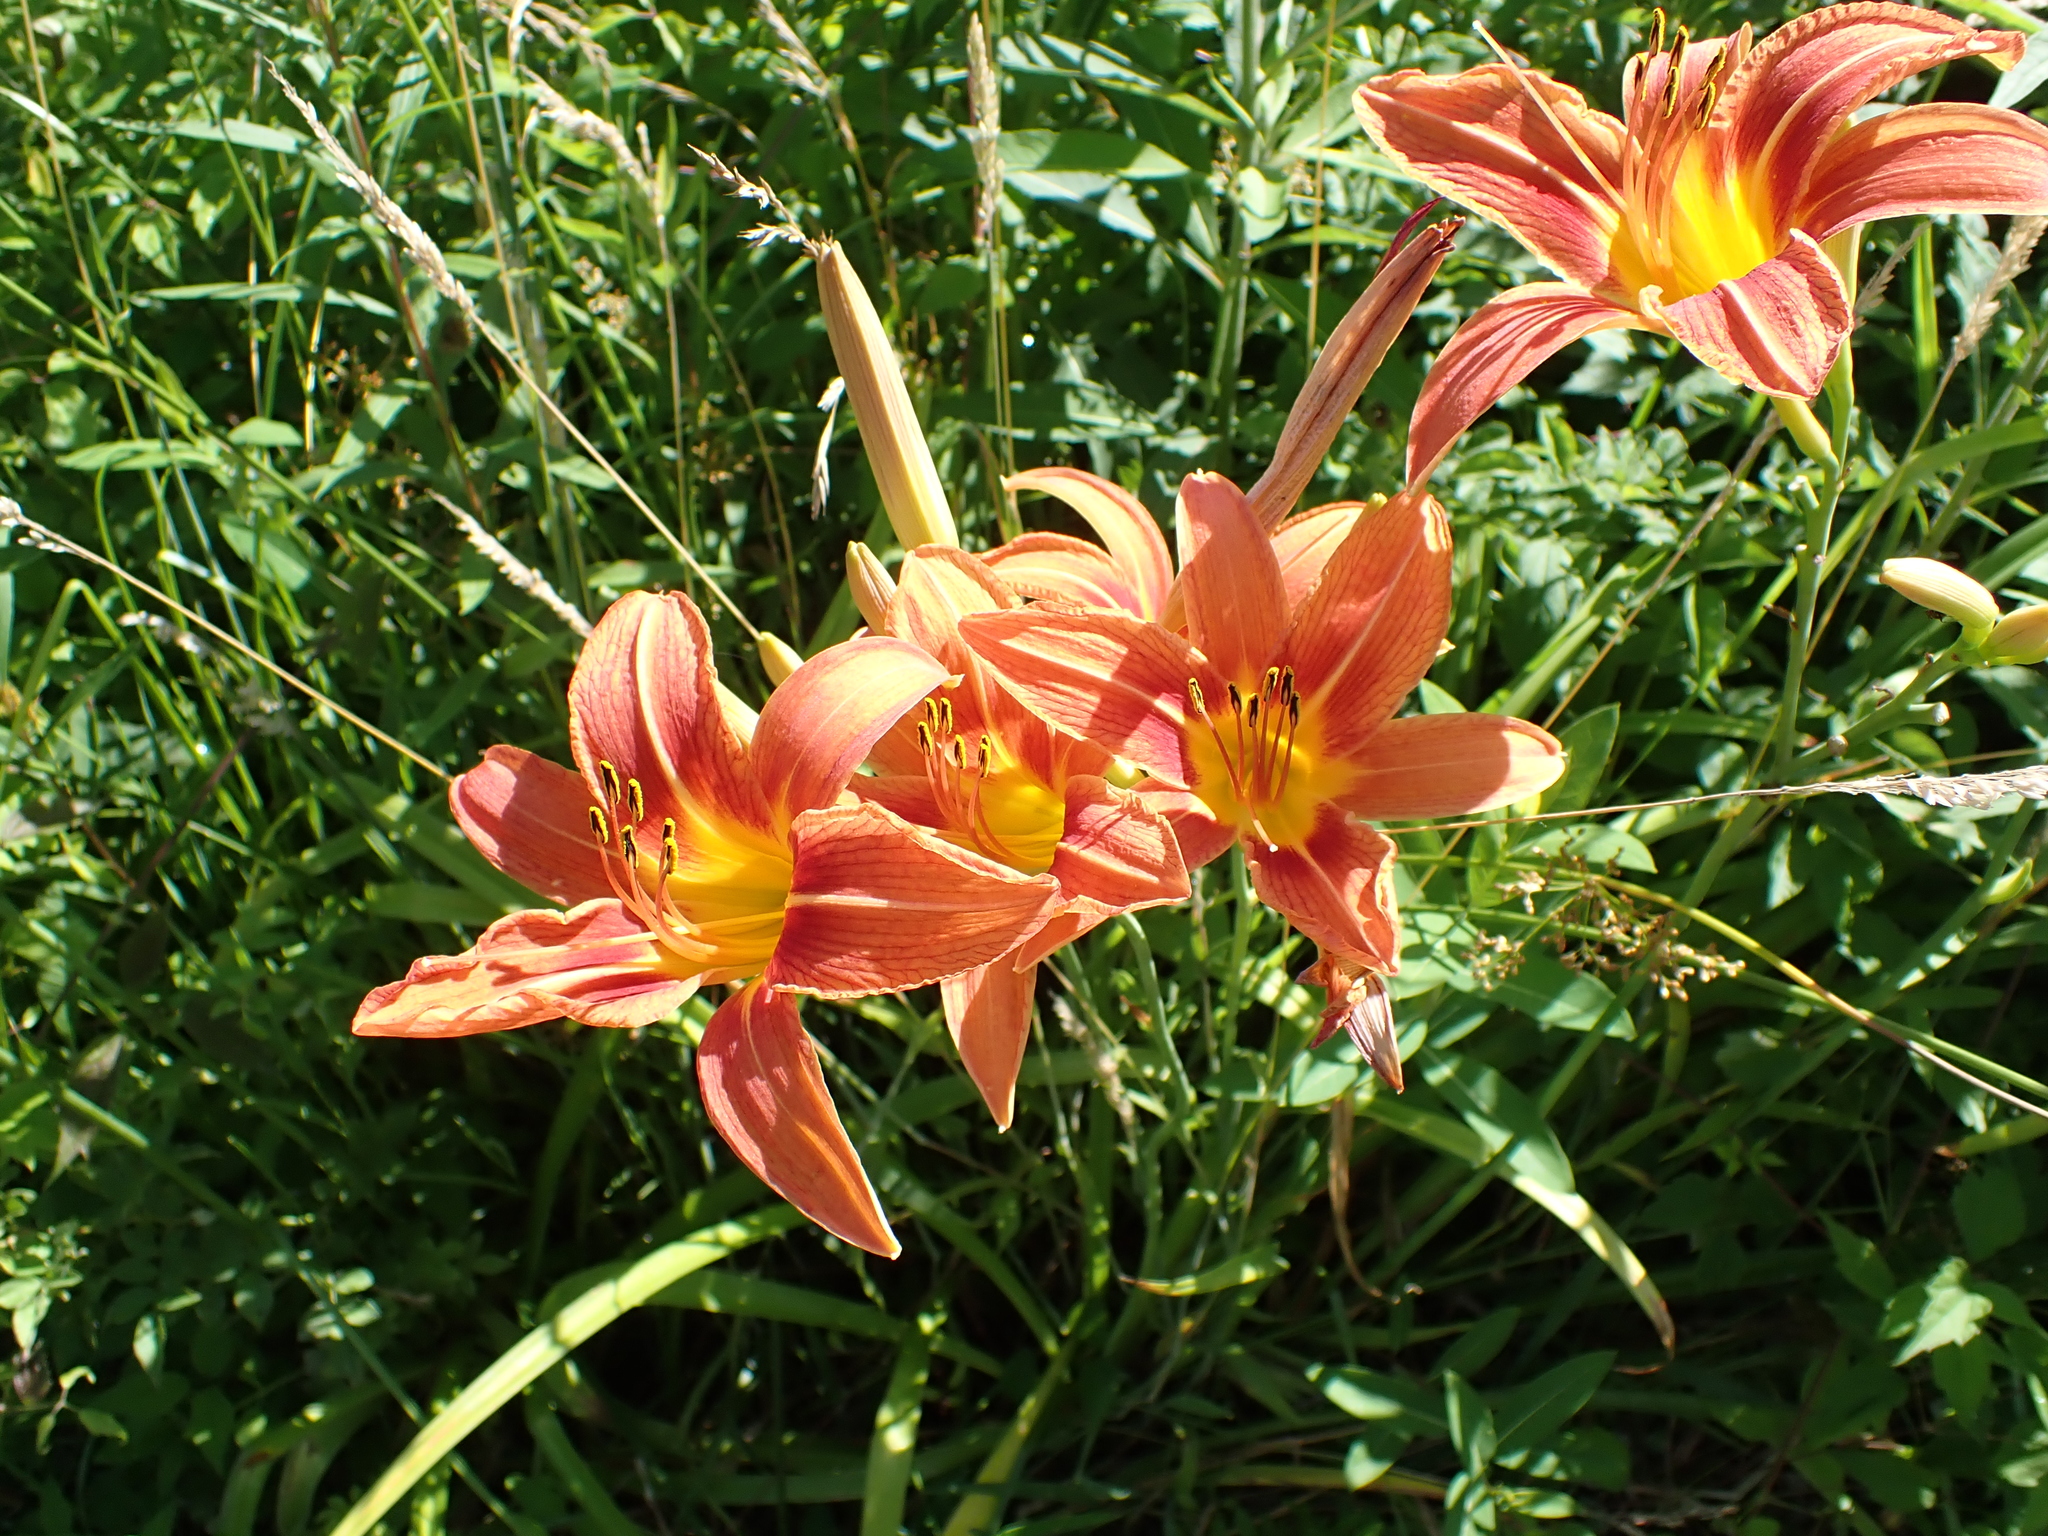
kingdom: Plantae
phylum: Tracheophyta
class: Liliopsida
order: Asparagales
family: Asphodelaceae
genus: Hemerocallis
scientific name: Hemerocallis fulva
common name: Orange day-lily
